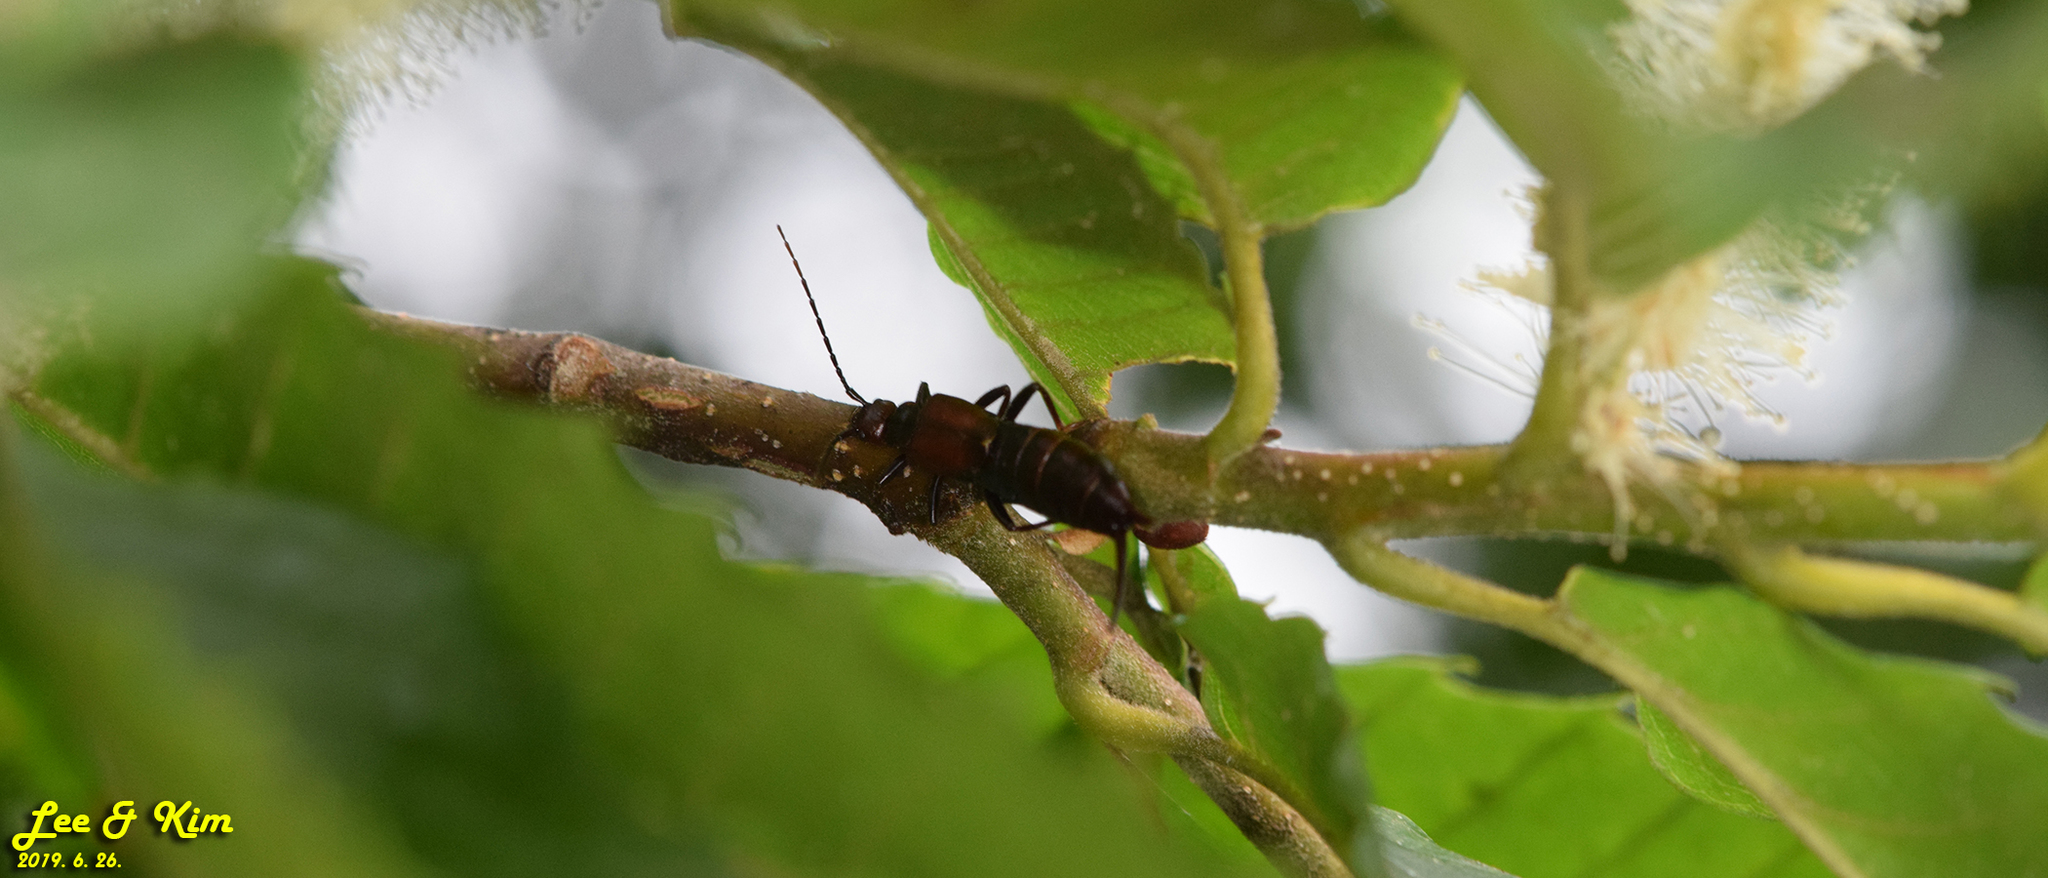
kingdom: Animalia
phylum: Arthropoda
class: Insecta
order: Dermaptera
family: Forficulidae
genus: Timomenus
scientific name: Timomenus komarovi
